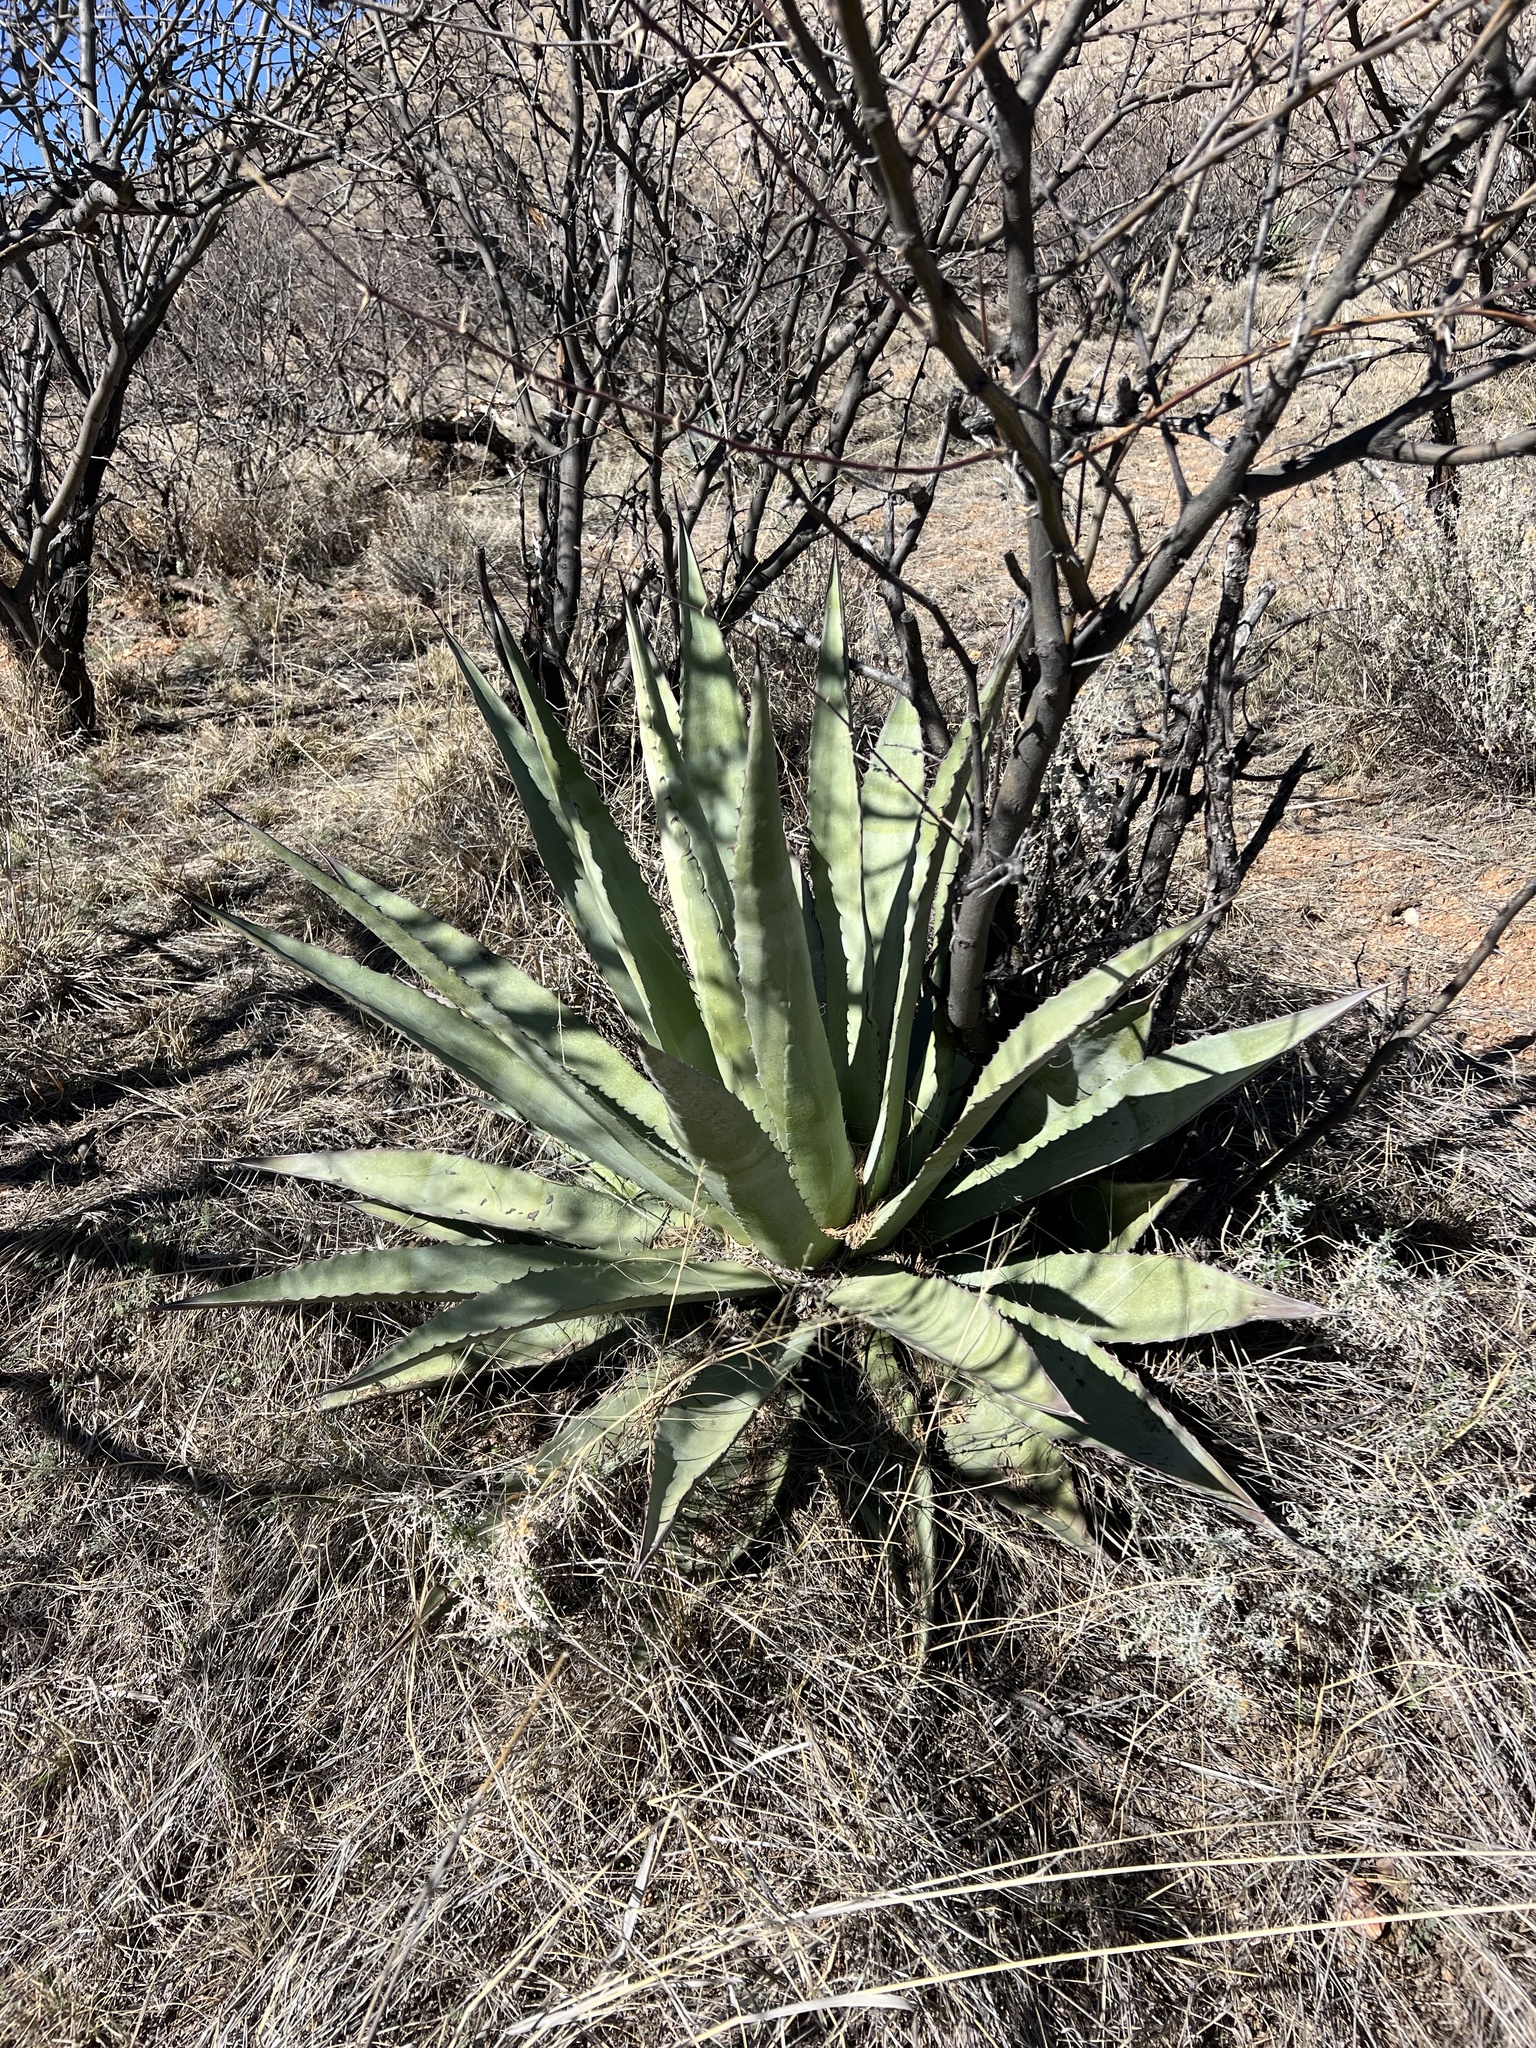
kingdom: Plantae
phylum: Tracheophyta
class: Liliopsida
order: Asparagales
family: Asparagaceae
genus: Agave
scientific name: Agave palmeri
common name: Palmer agave
